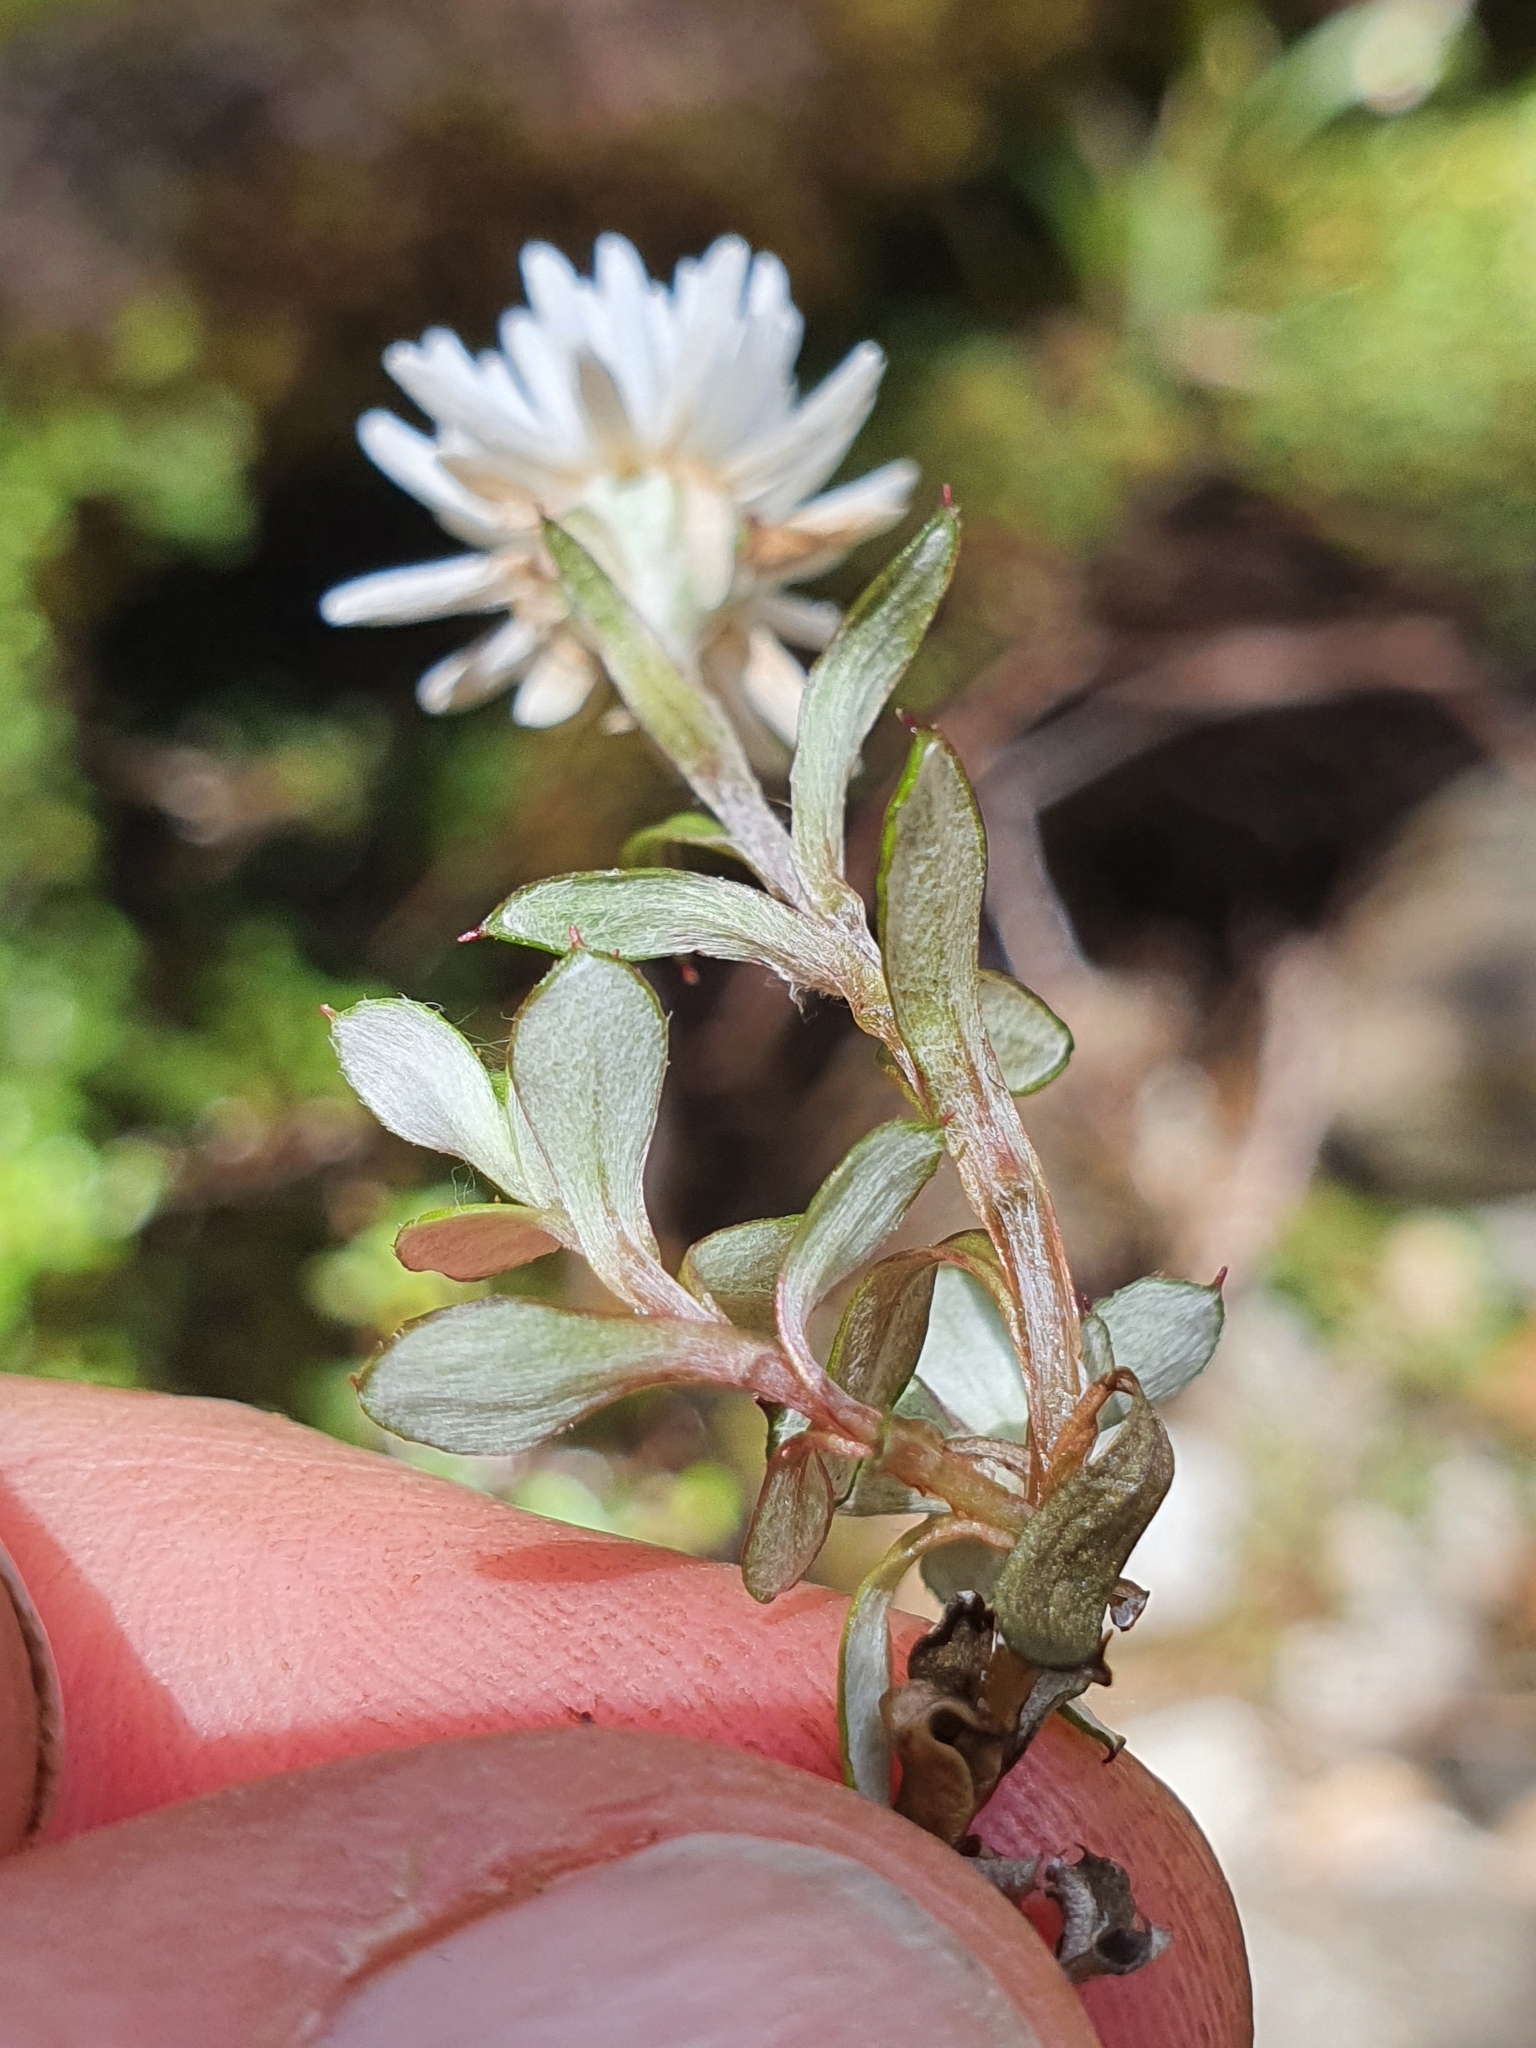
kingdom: Plantae
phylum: Tracheophyta
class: Magnoliopsida
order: Asterales
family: Asteraceae
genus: Anaphalioides
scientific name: Anaphalioides bellidioides
